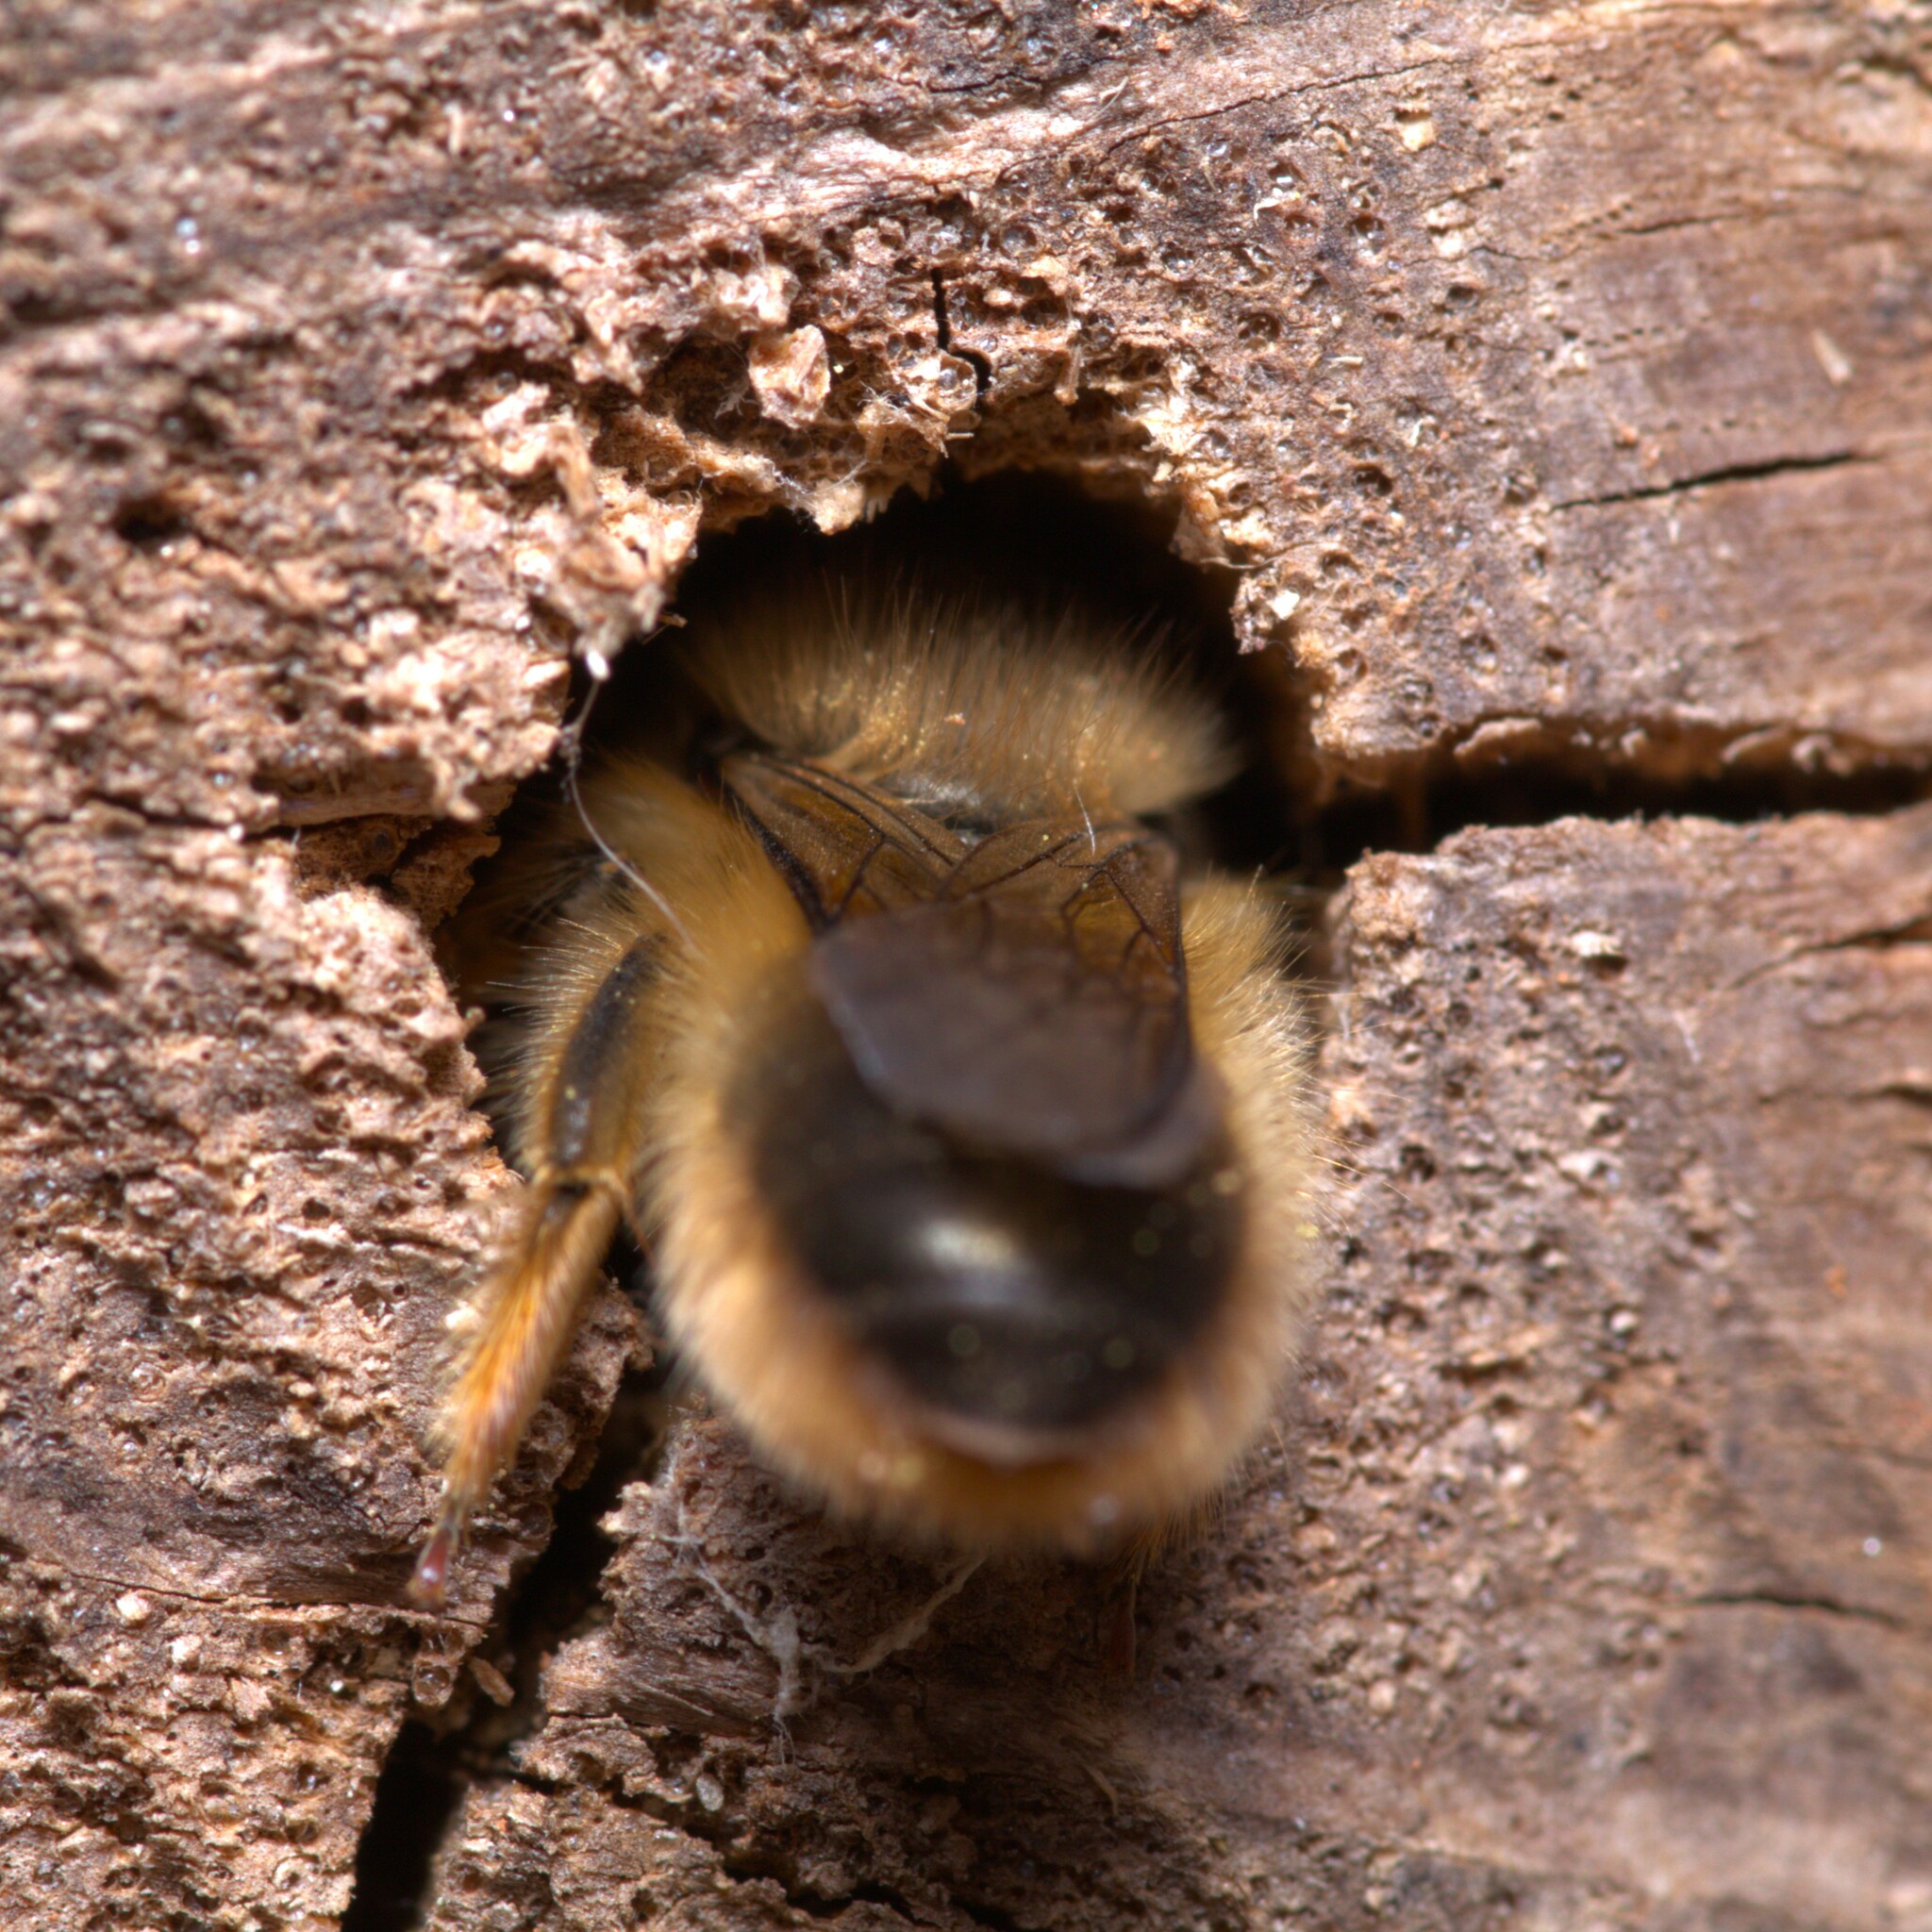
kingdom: Animalia
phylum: Arthropoda
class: Insecta
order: Hymenoptera
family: Megachilidae
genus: Osmia
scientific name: Osmia taurus
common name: Taurus mason bee
